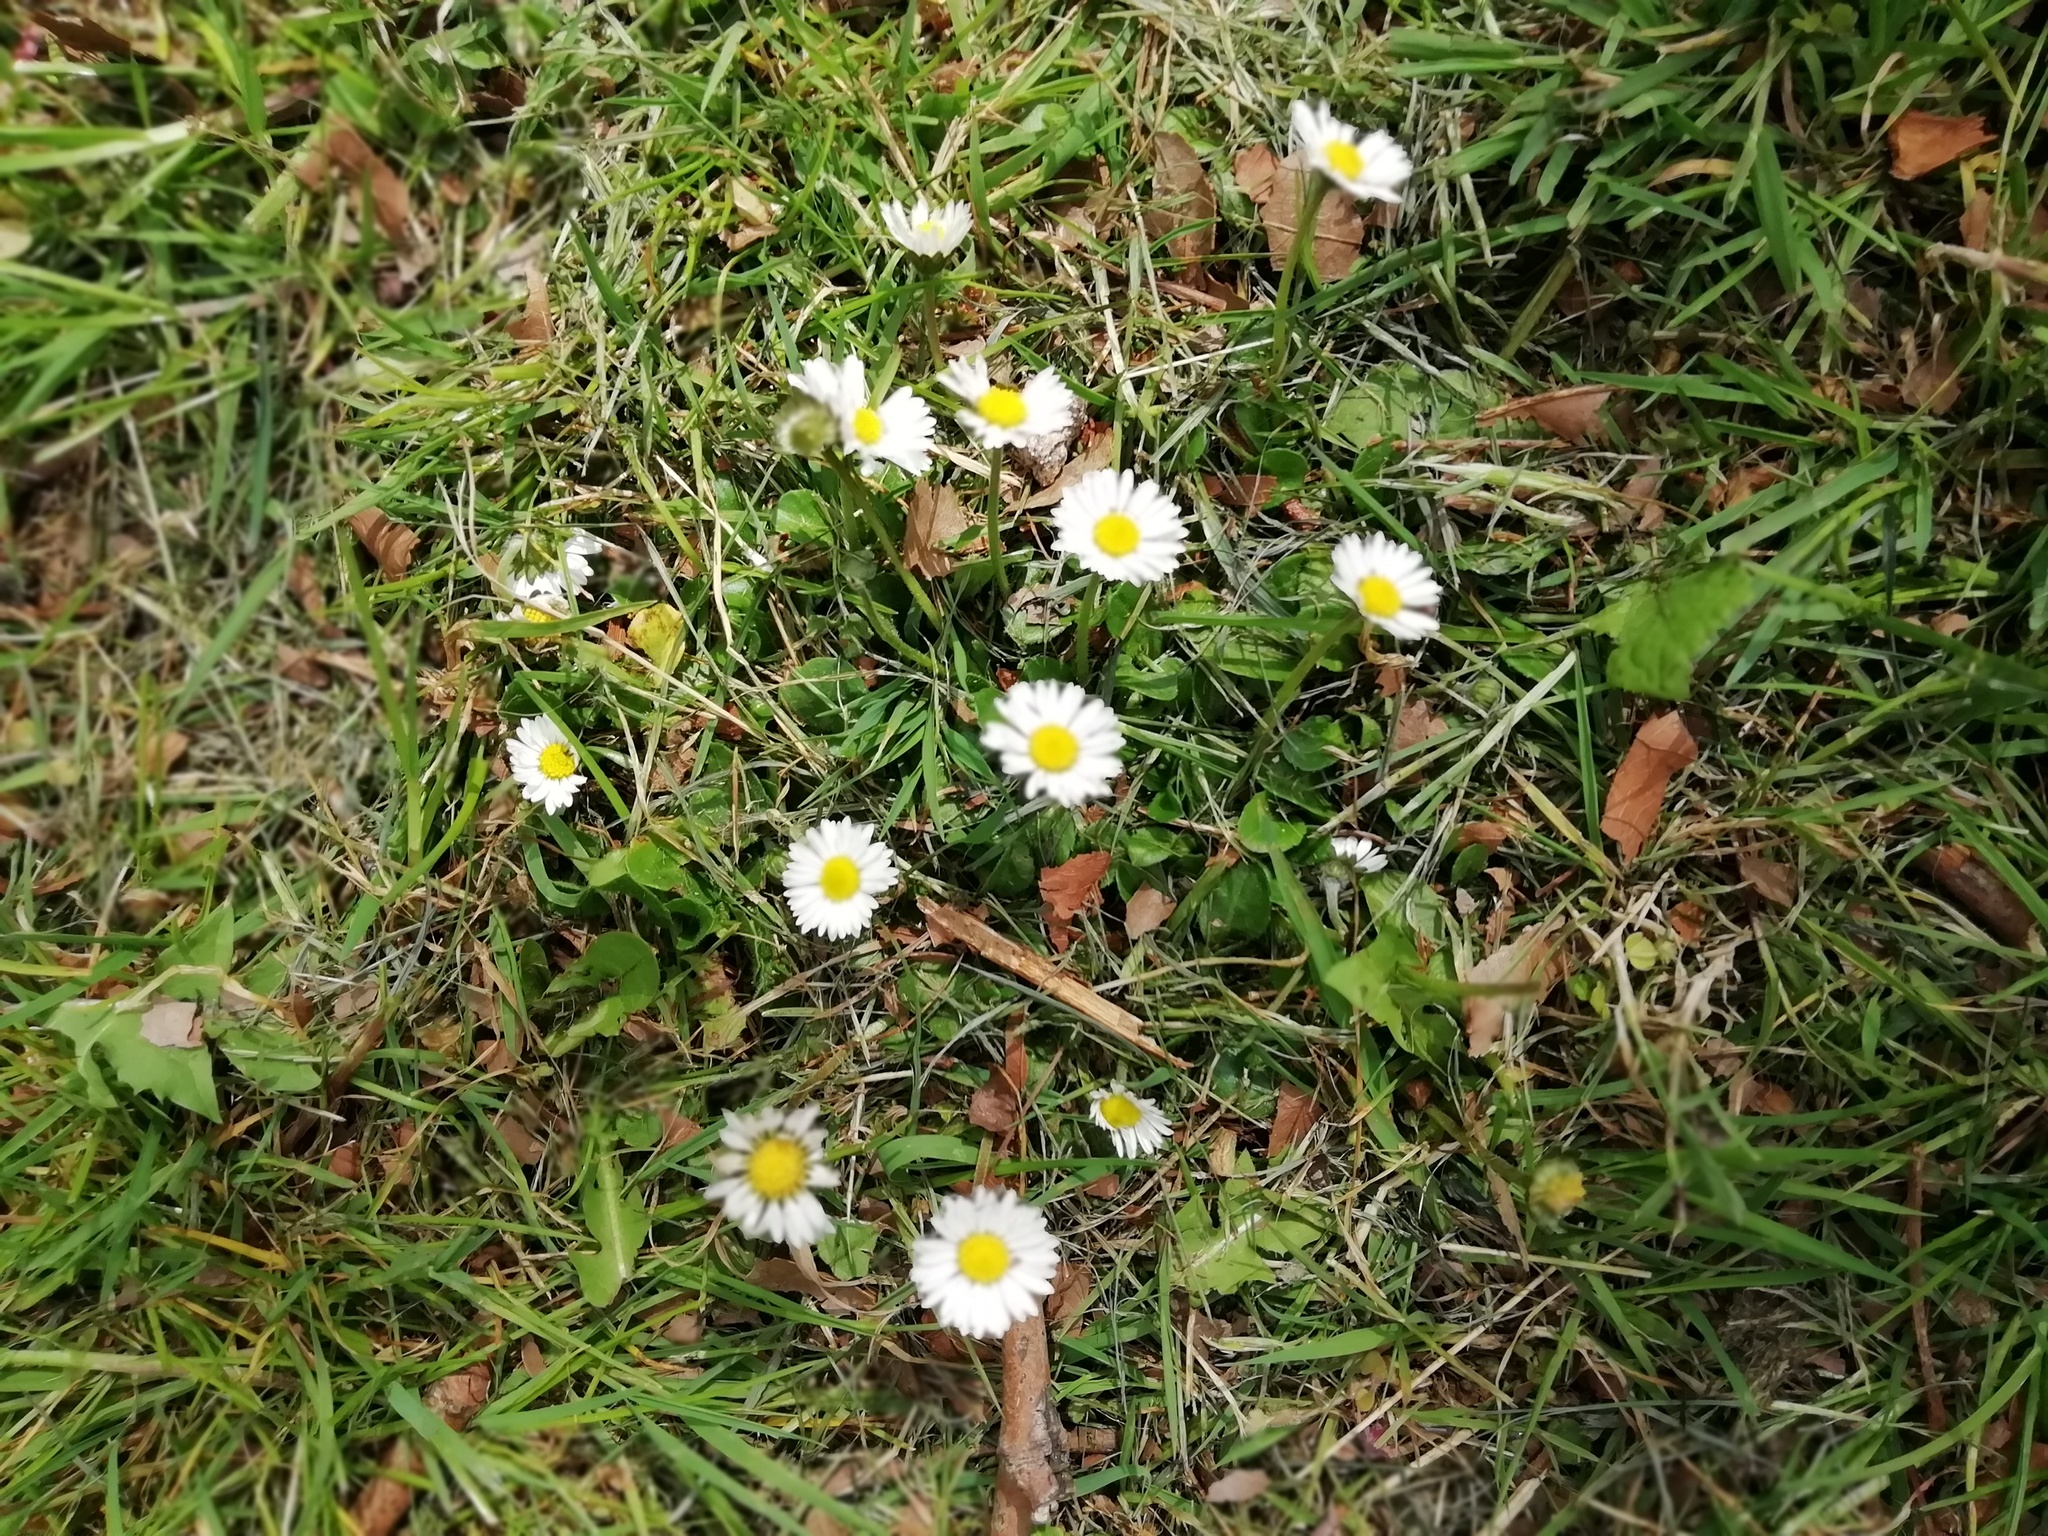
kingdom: Plantae
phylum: Tracheophyta
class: Magnoliopsida
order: Asterales
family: Asteraceae
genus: Bellis
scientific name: Bellis perennis
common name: Lawndaisy
